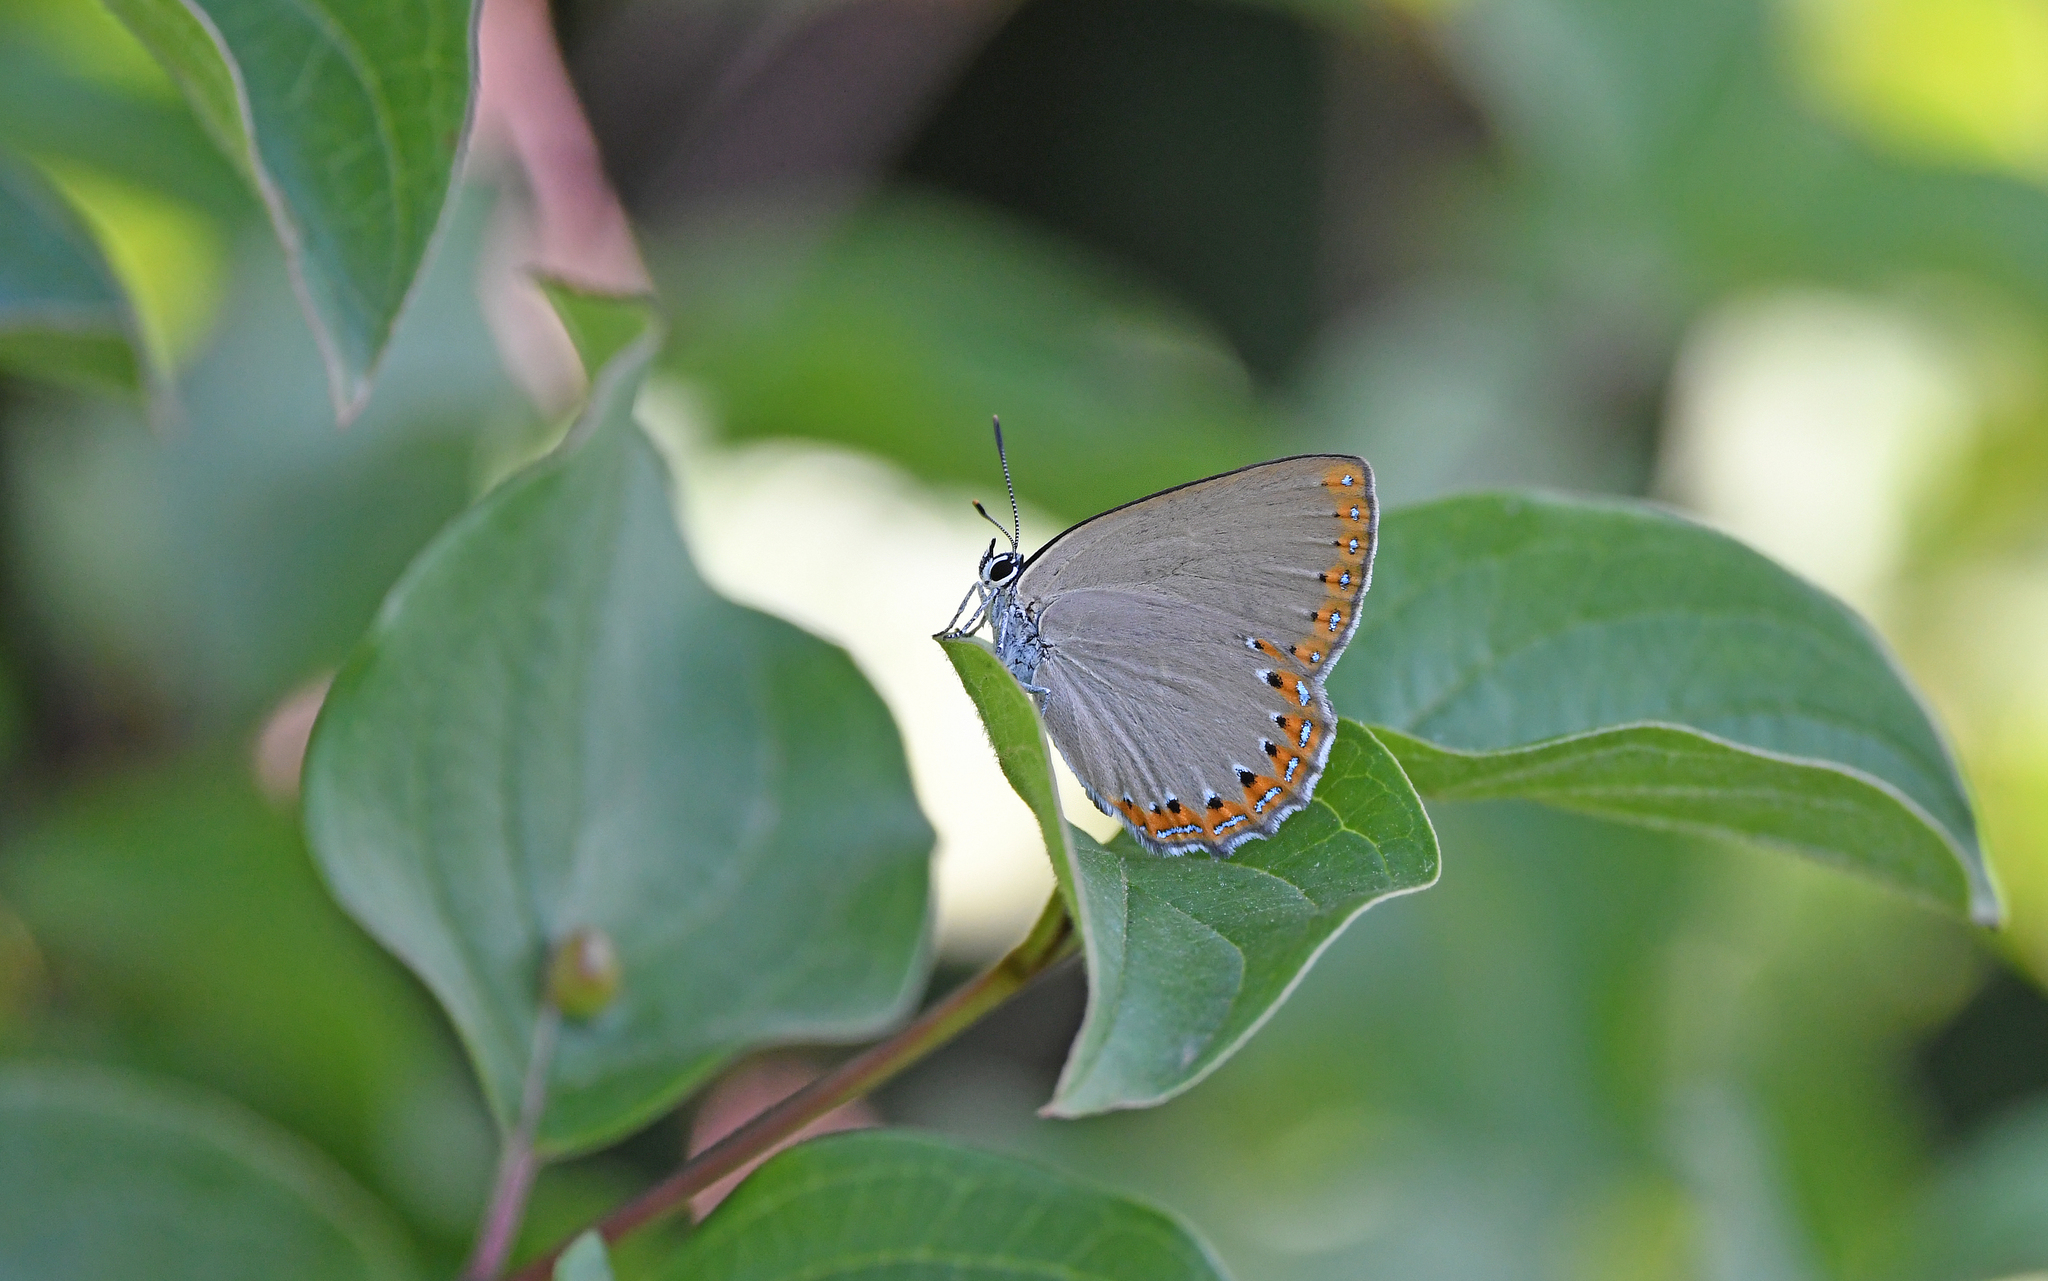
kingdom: Animalia
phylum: Arthropoda
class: Insecta
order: Lepidoptera
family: Lycaenidae
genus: Laeosopis
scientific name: Laeosopis roboris
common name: Spanish purple hairstreak
